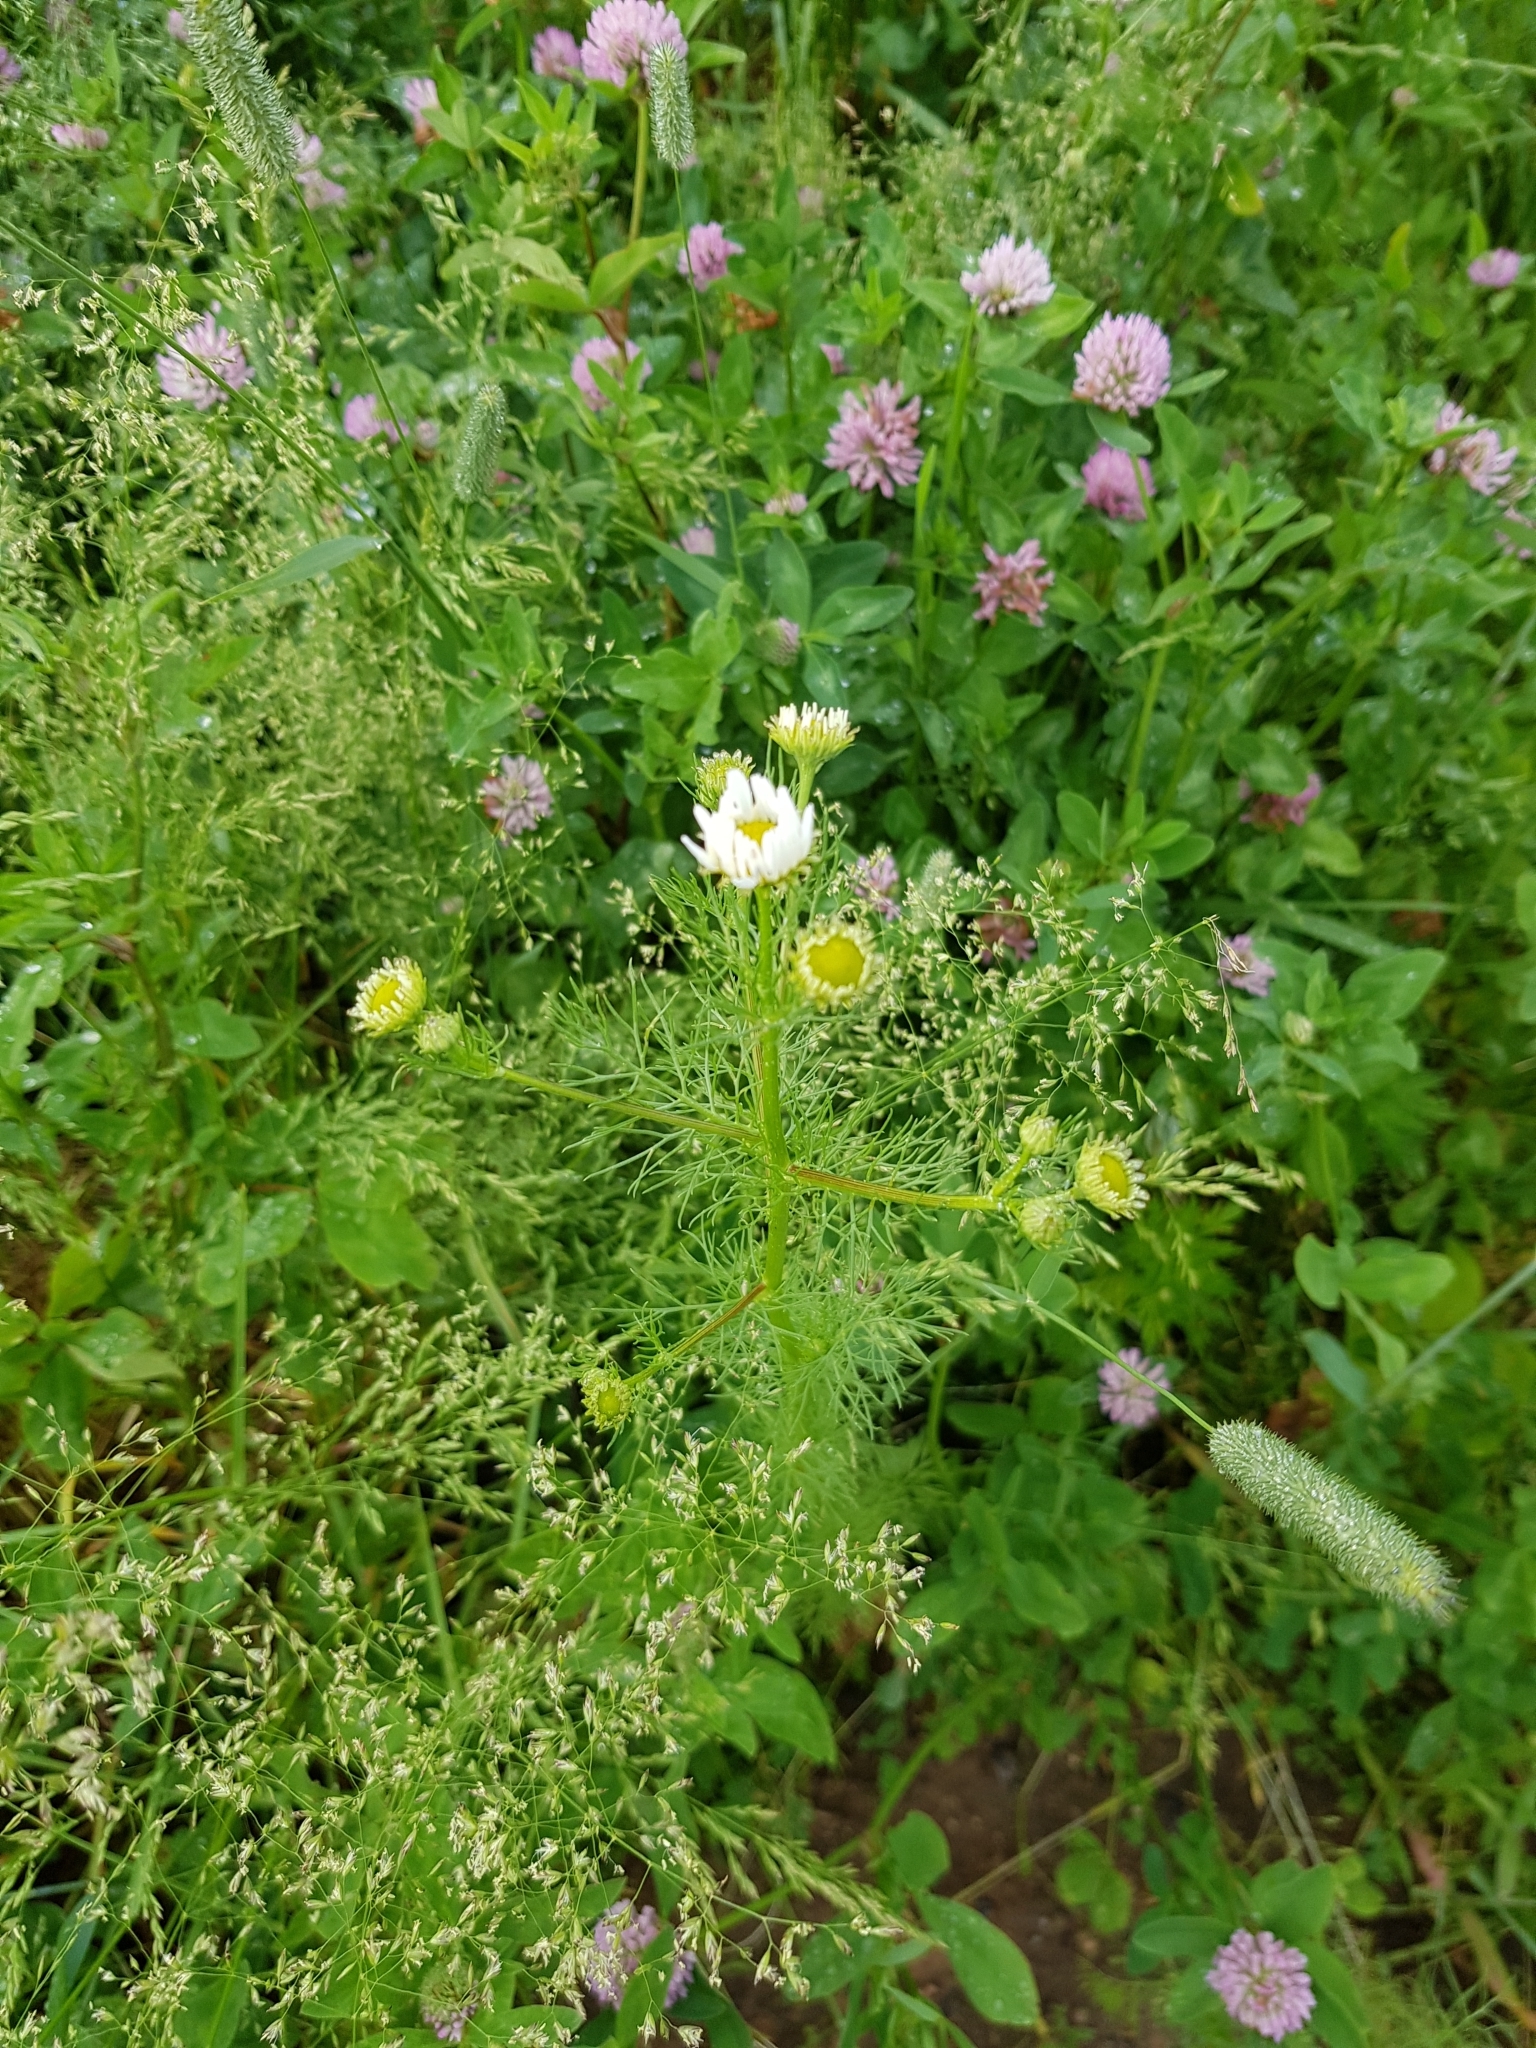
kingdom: Plantae
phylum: Tracheophyta
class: Magnoliopsida
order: Asterales
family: Asteraceae
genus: Tripleurospermum
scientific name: Tripleurospermum inodorum
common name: Scentless mayweed
